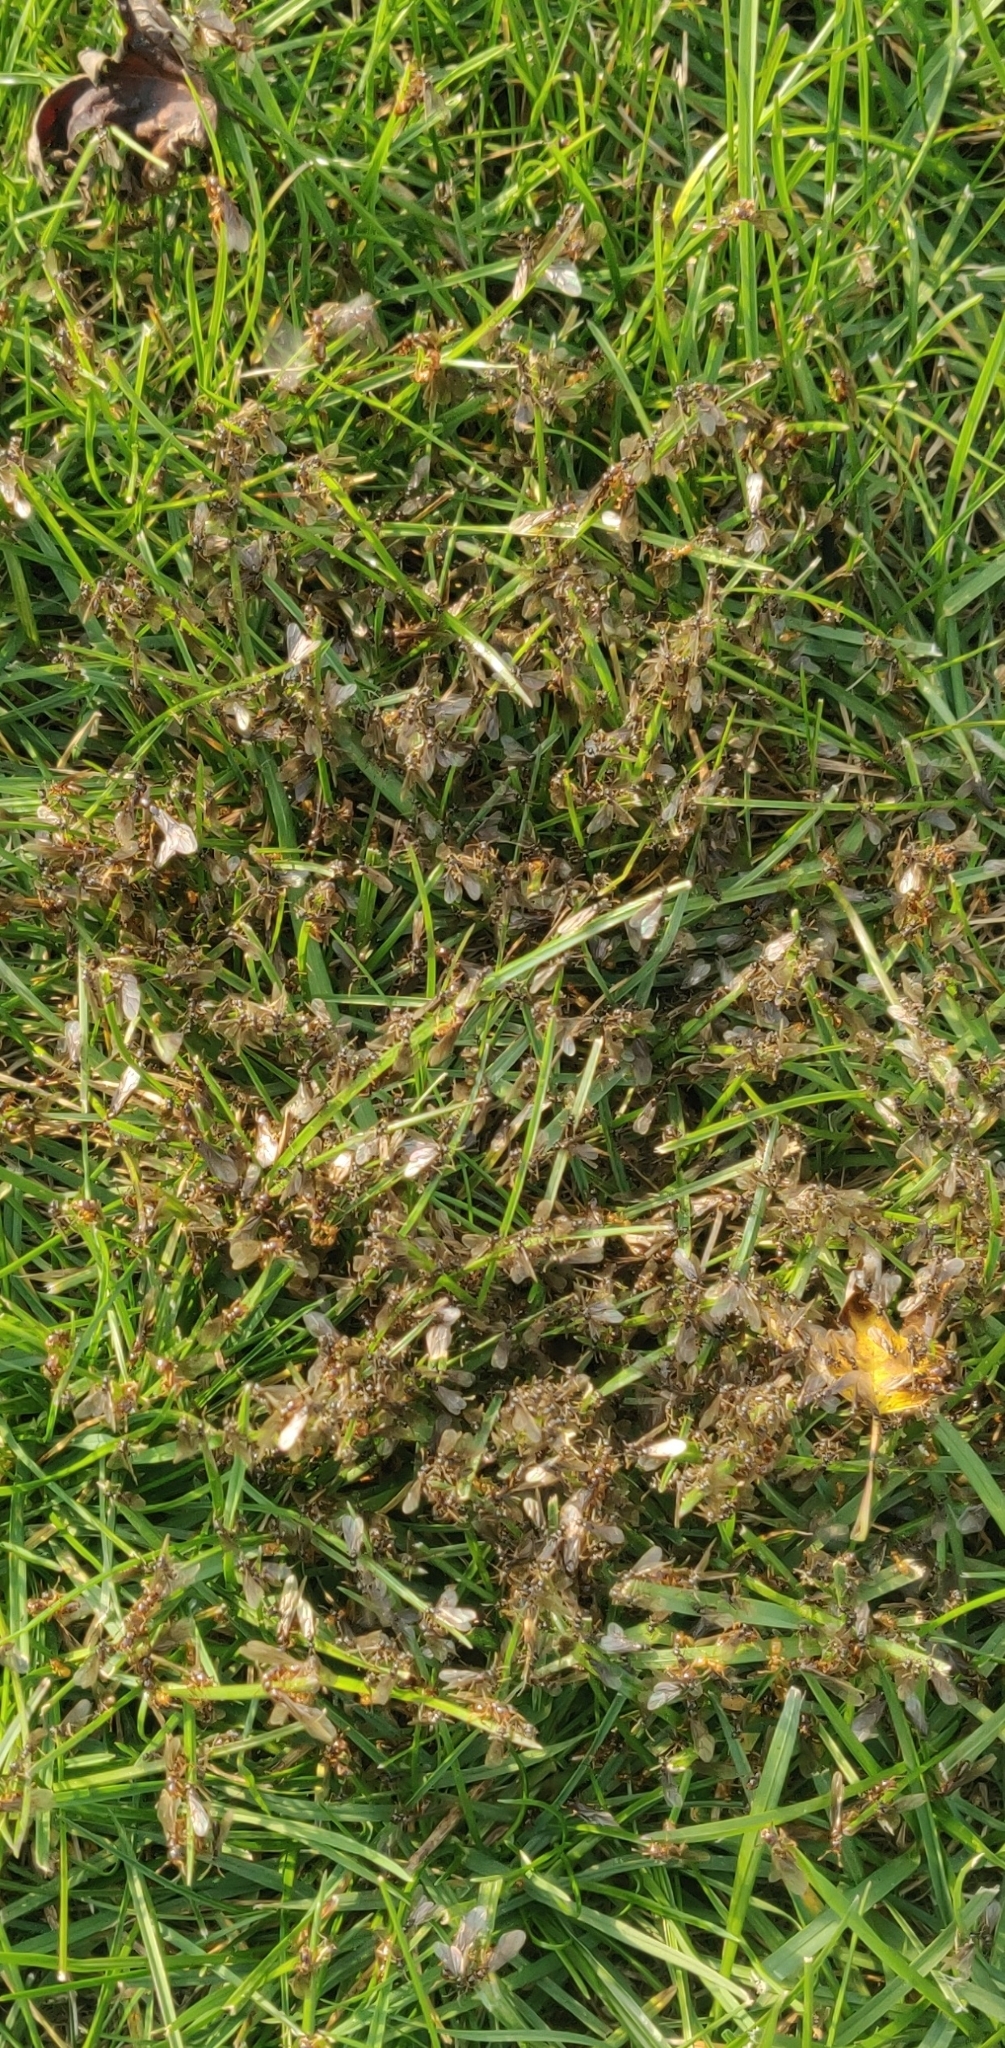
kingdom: Animalia
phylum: Arthropoda
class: Insecta
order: Hymenoptera
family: Formicidae
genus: Lasius
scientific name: Lasius claviger
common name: Common citronella ant
